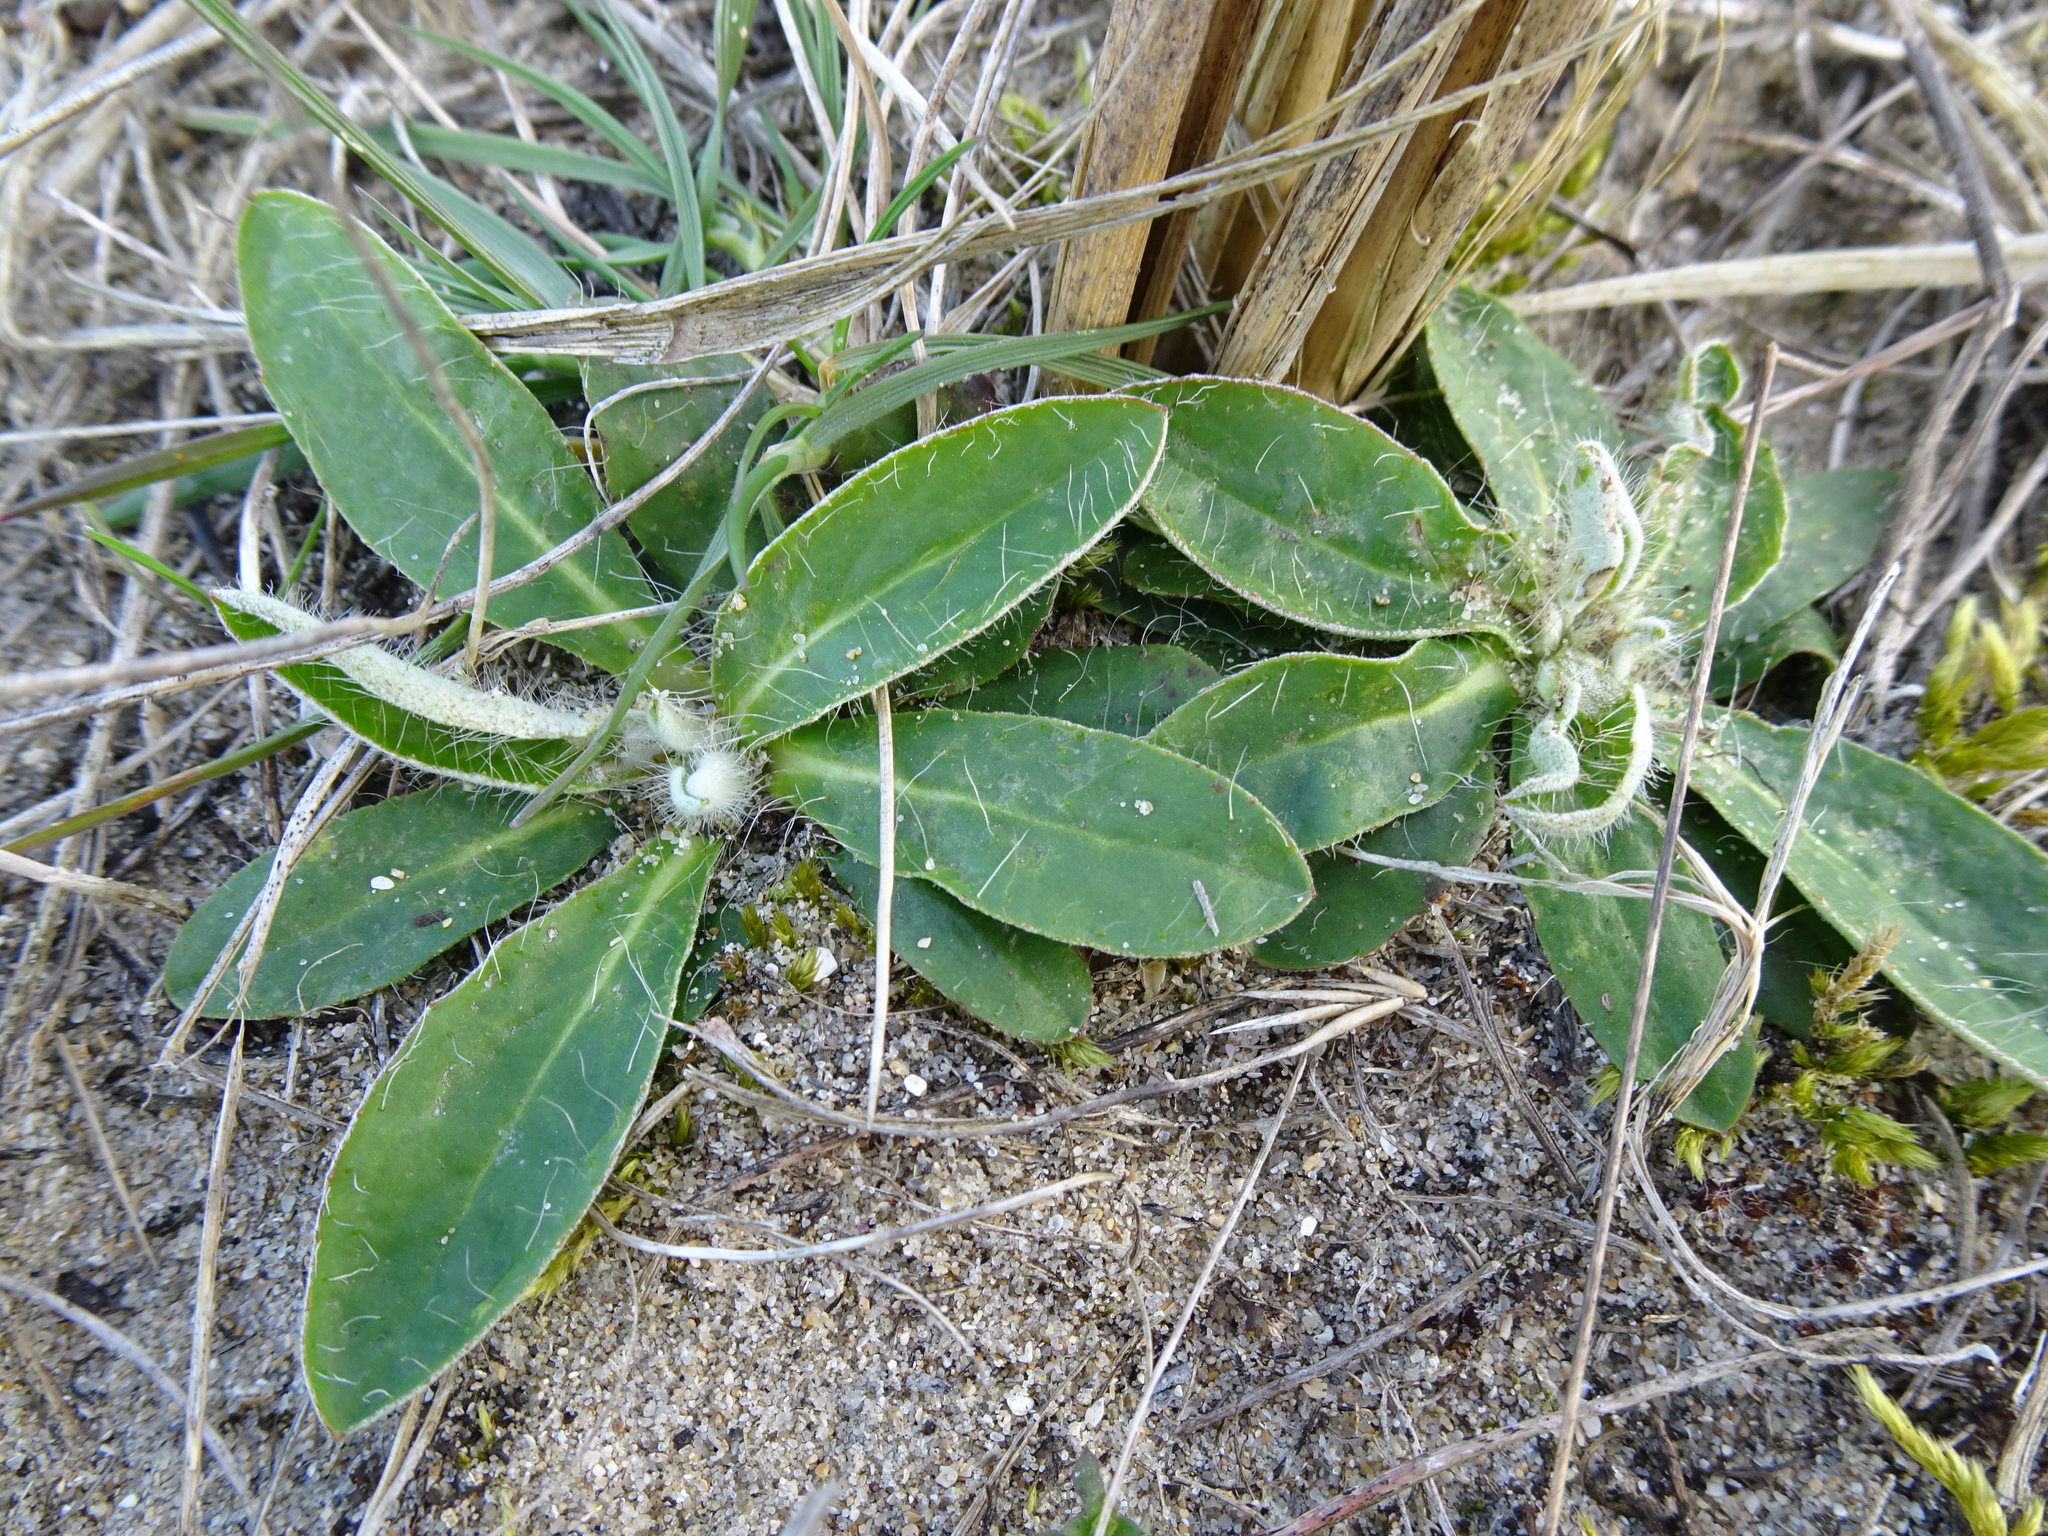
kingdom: Plantae
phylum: Tracheophyta
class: Magnoliopsida
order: Asterales
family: Asteraceae
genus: Pilosella
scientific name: Pilosella officinarum
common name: Mouse-ear hawkweed
